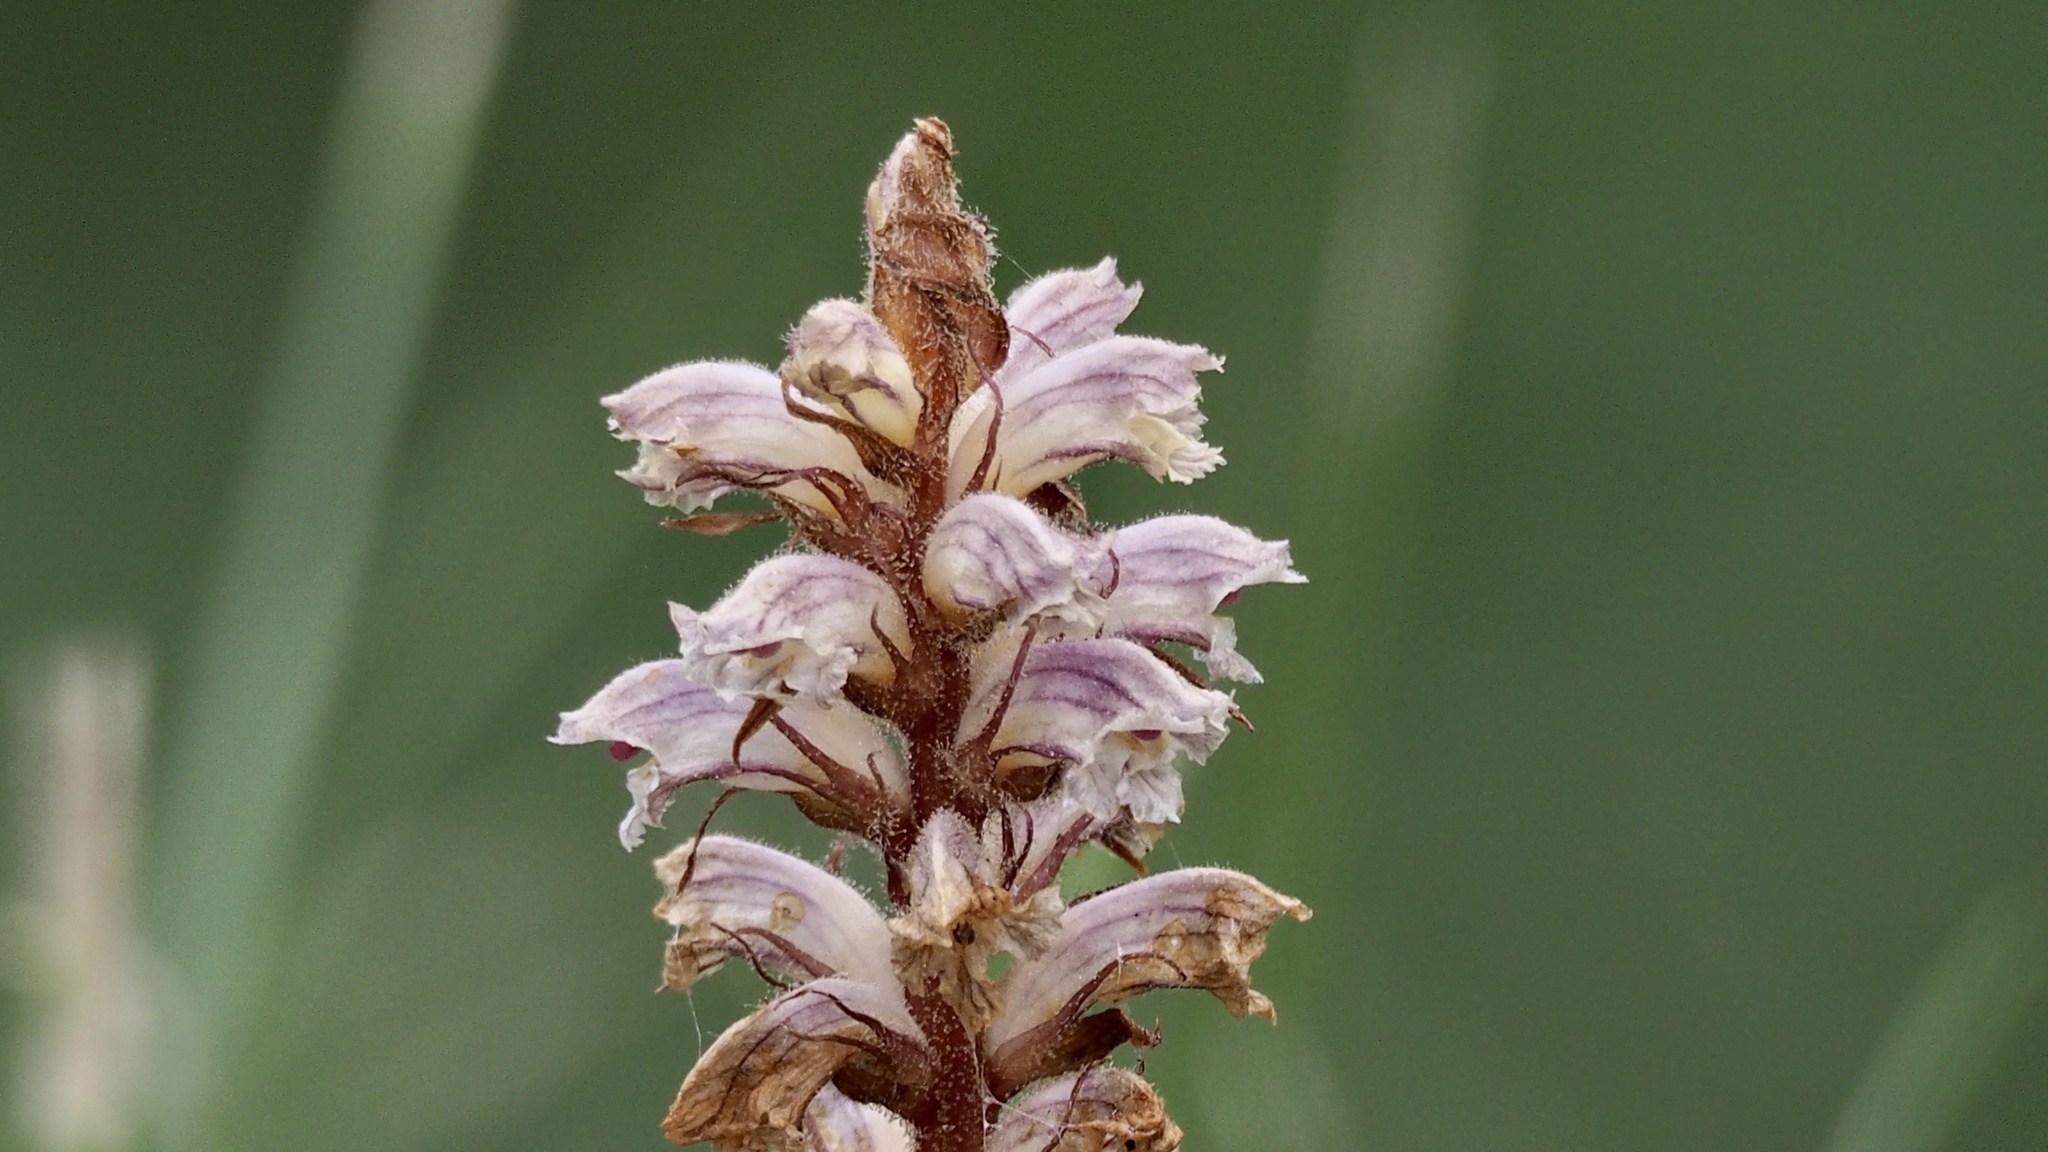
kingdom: Plantae
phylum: Tracheophyta
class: Magnoliopsida
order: Lamiales
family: Orobanchaceae
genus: Orobanche
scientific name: Orobanche minor
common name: Common broomrape
